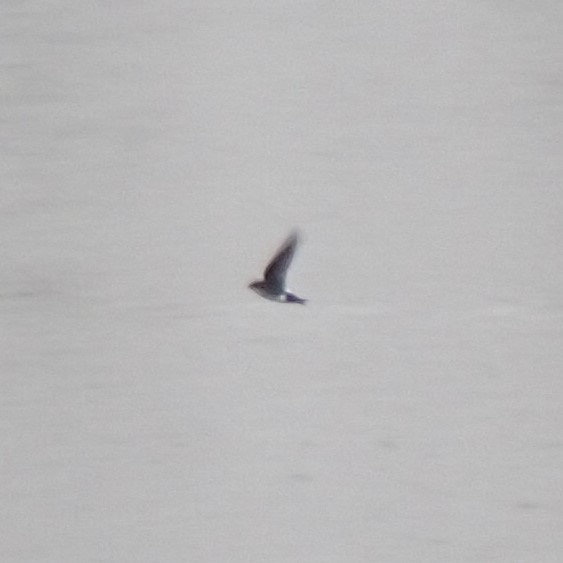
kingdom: Animalia
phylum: Chordata
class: Aves
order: Passeriformes
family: Hirundinidae
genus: Tachycineta
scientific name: Tachycineta thalassina
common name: Violet-green swallow
